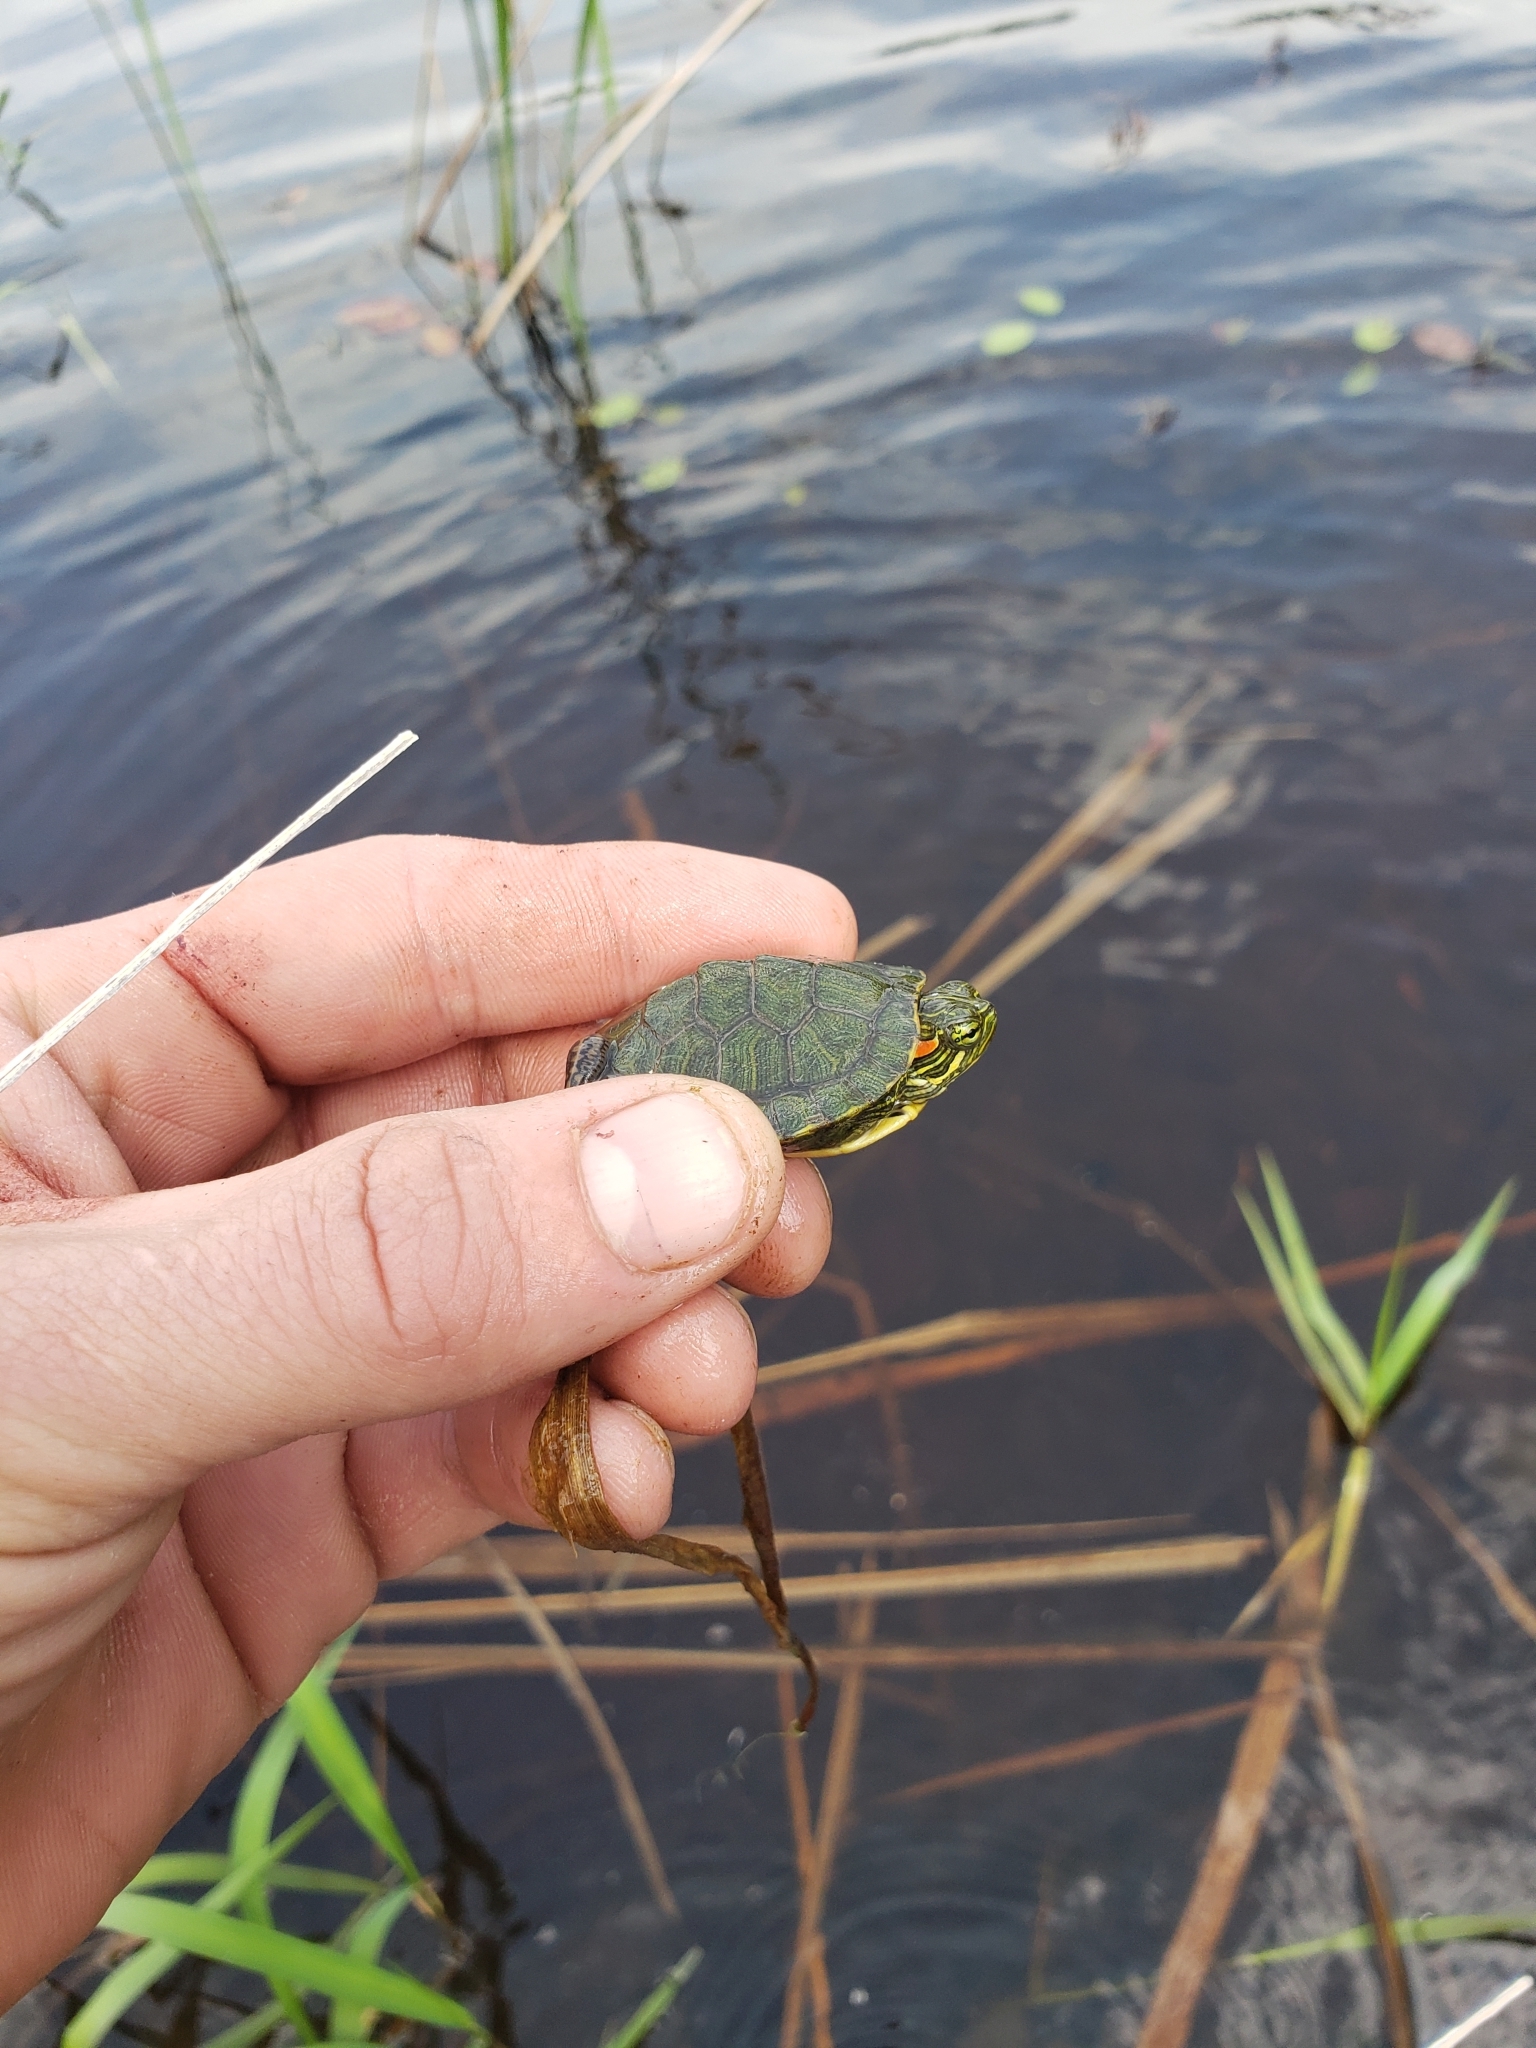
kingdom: Animalia
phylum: Chordata
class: Testudines
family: Emydidae
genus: Trachemys
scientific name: Trachemys scripta
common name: Slider
